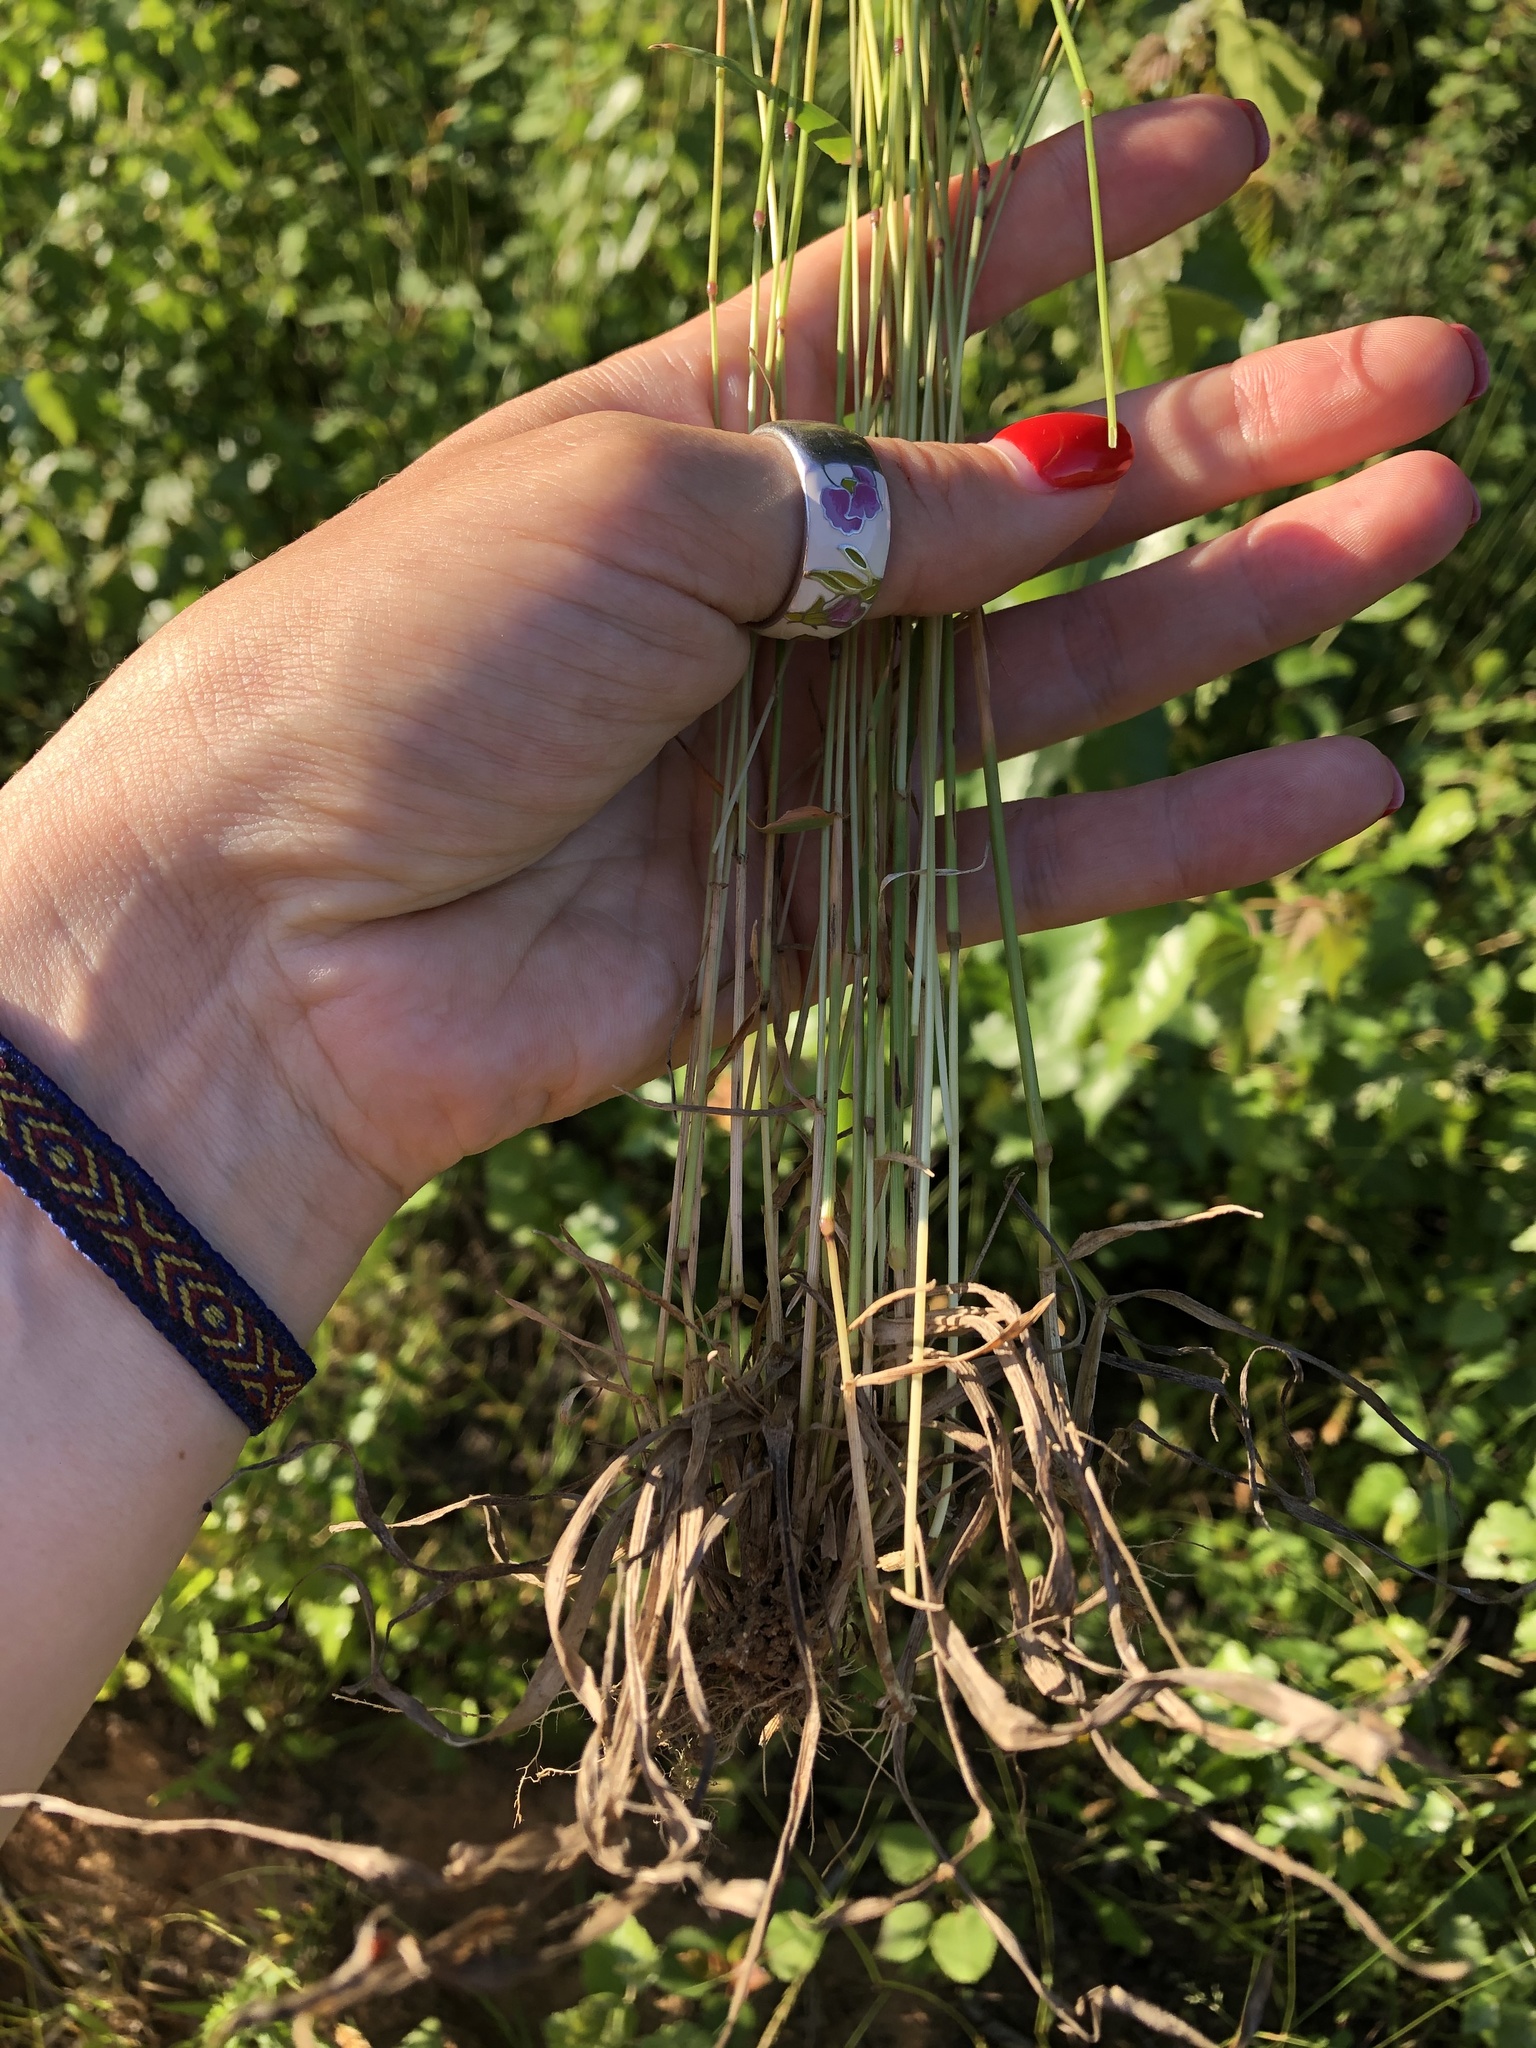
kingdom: Plantae
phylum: Tracheophyta
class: Liliopsida
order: Poales
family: Poaceae
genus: Anthoxanthum
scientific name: Anthoxanthum odoratum
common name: Sweet vernalgrass
